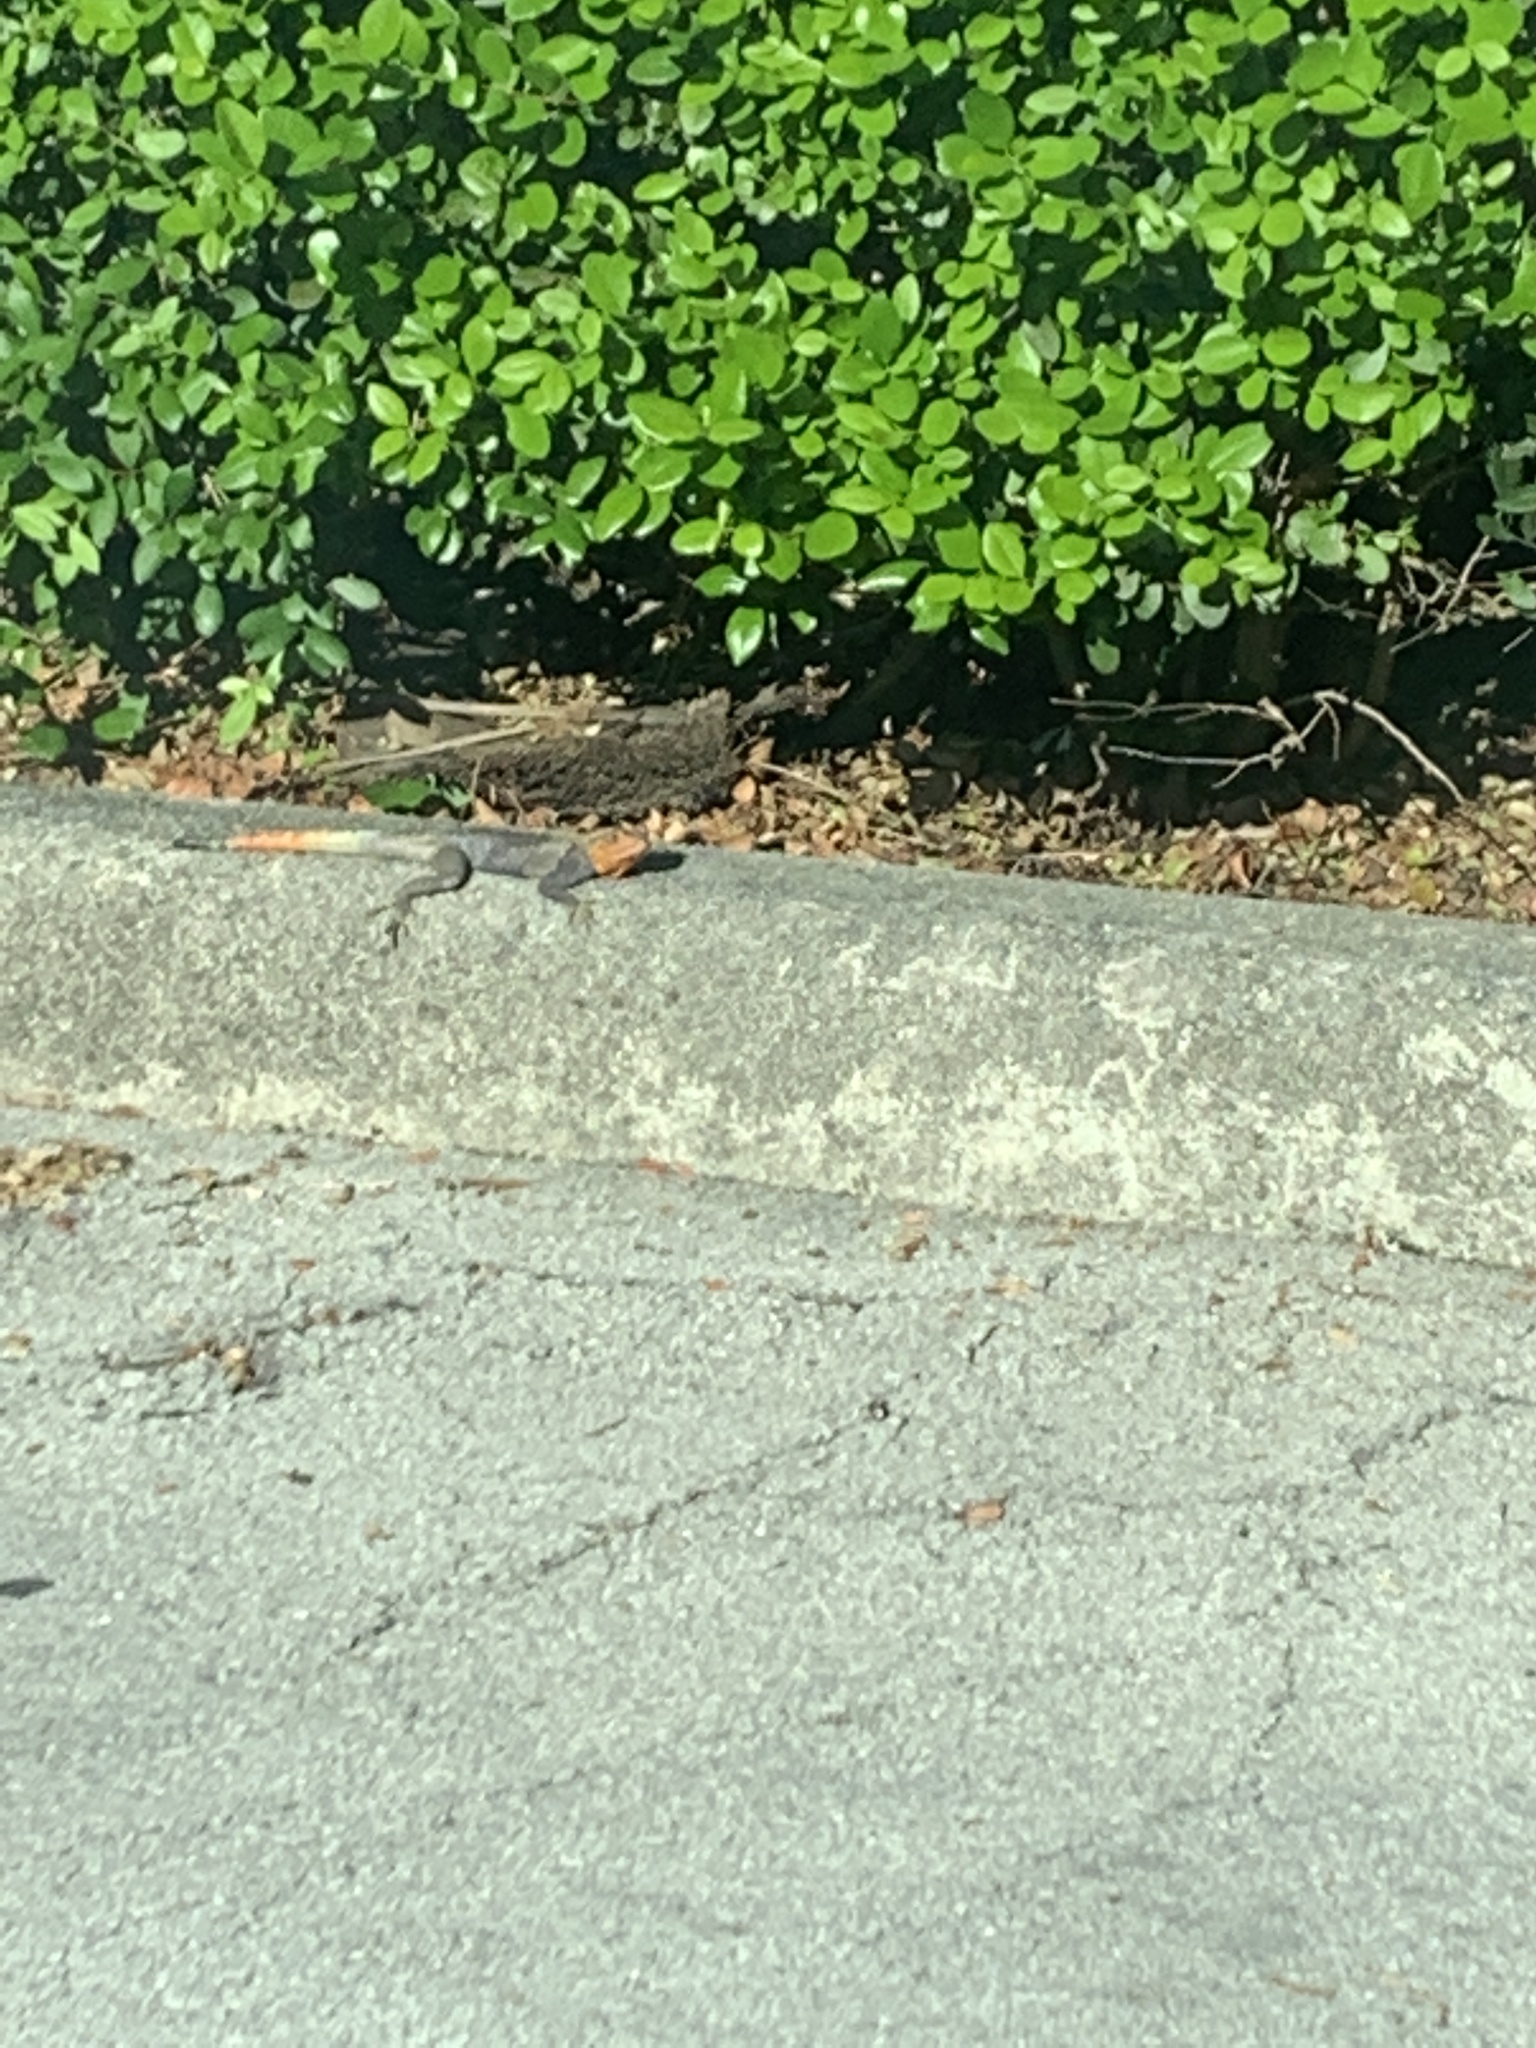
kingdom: Animalia
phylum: Chordata
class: Squamata
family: Agamidae
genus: Agama
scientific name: Agama picticauda
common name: Red-headed agama
